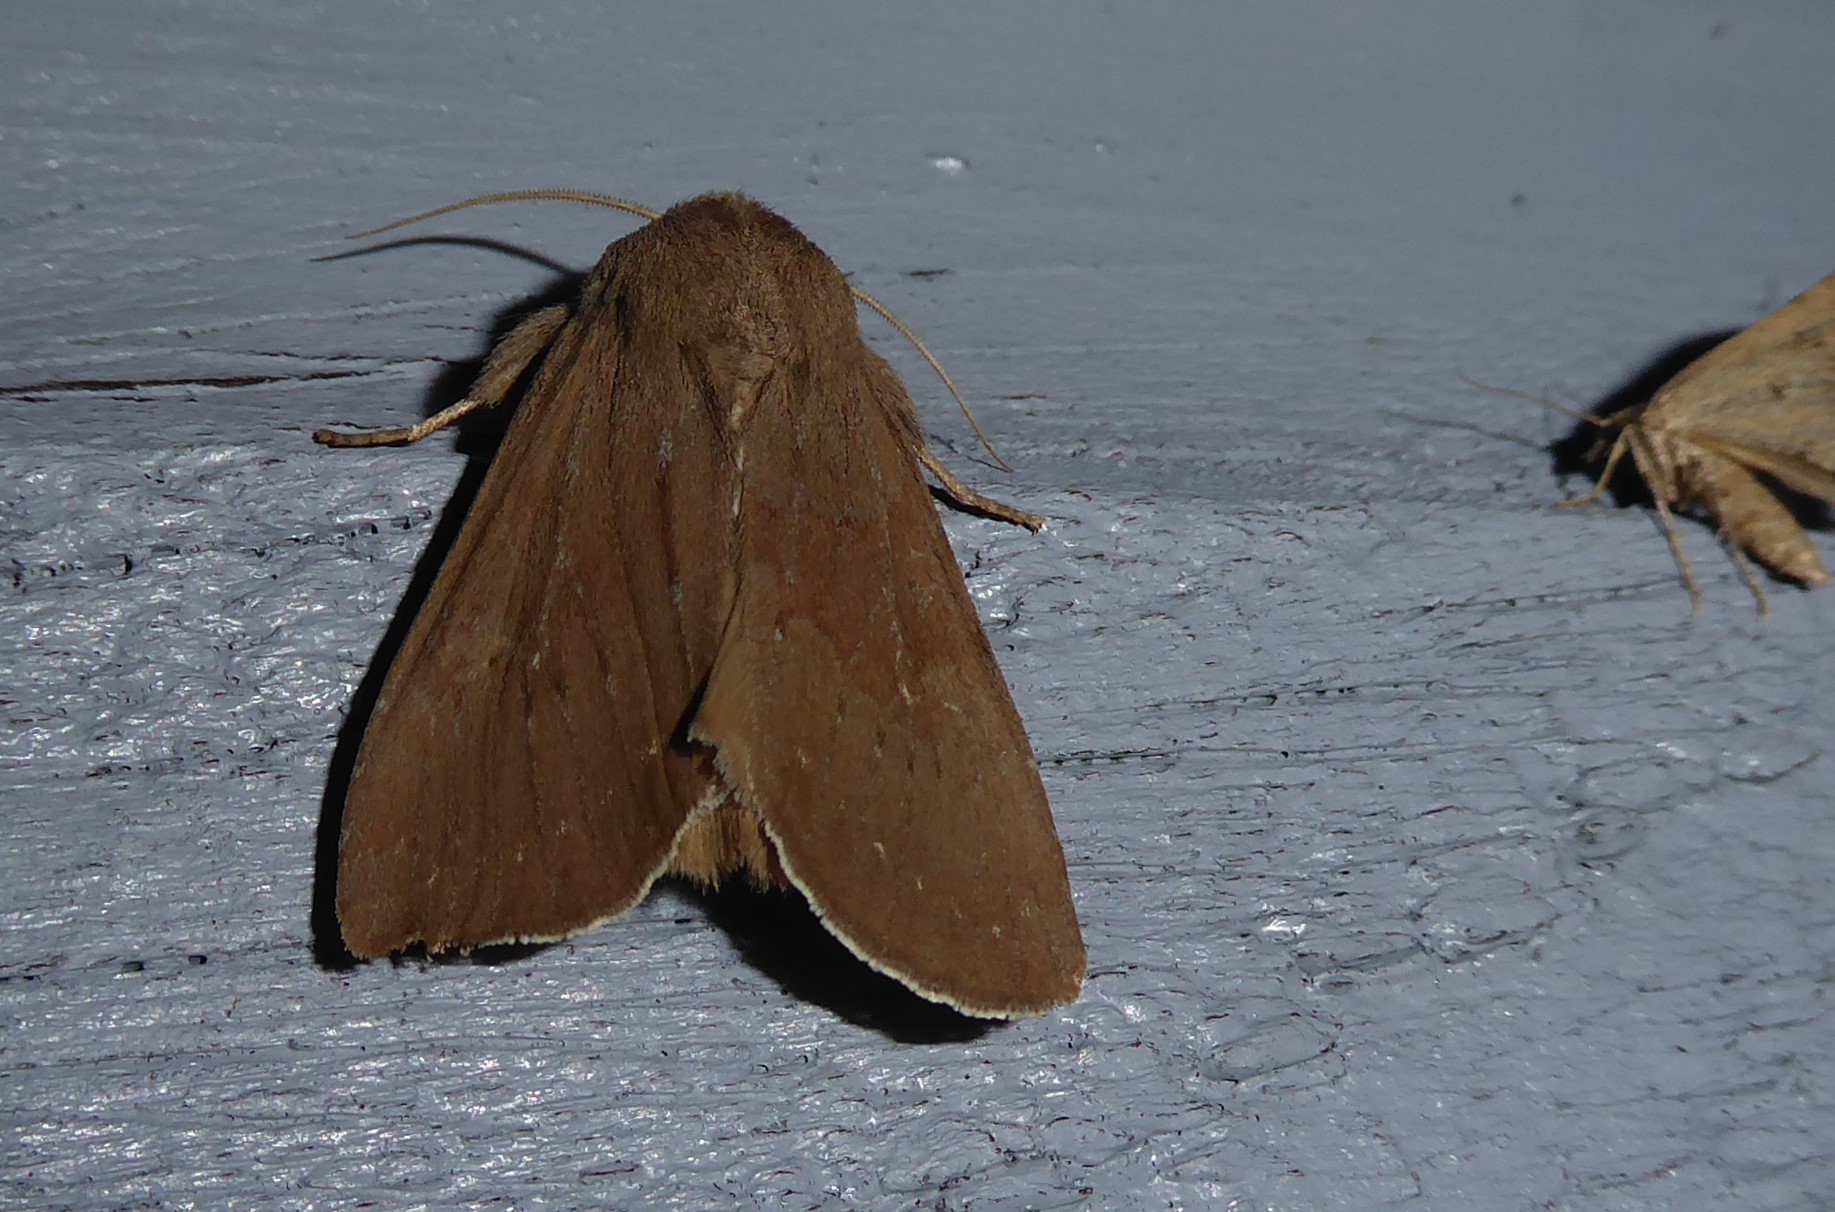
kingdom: Animalia
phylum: Arthropoda
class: Insecta
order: Lepidoptera
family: Noctuidae
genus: Ichneutica
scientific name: Ichneutica nullifera
